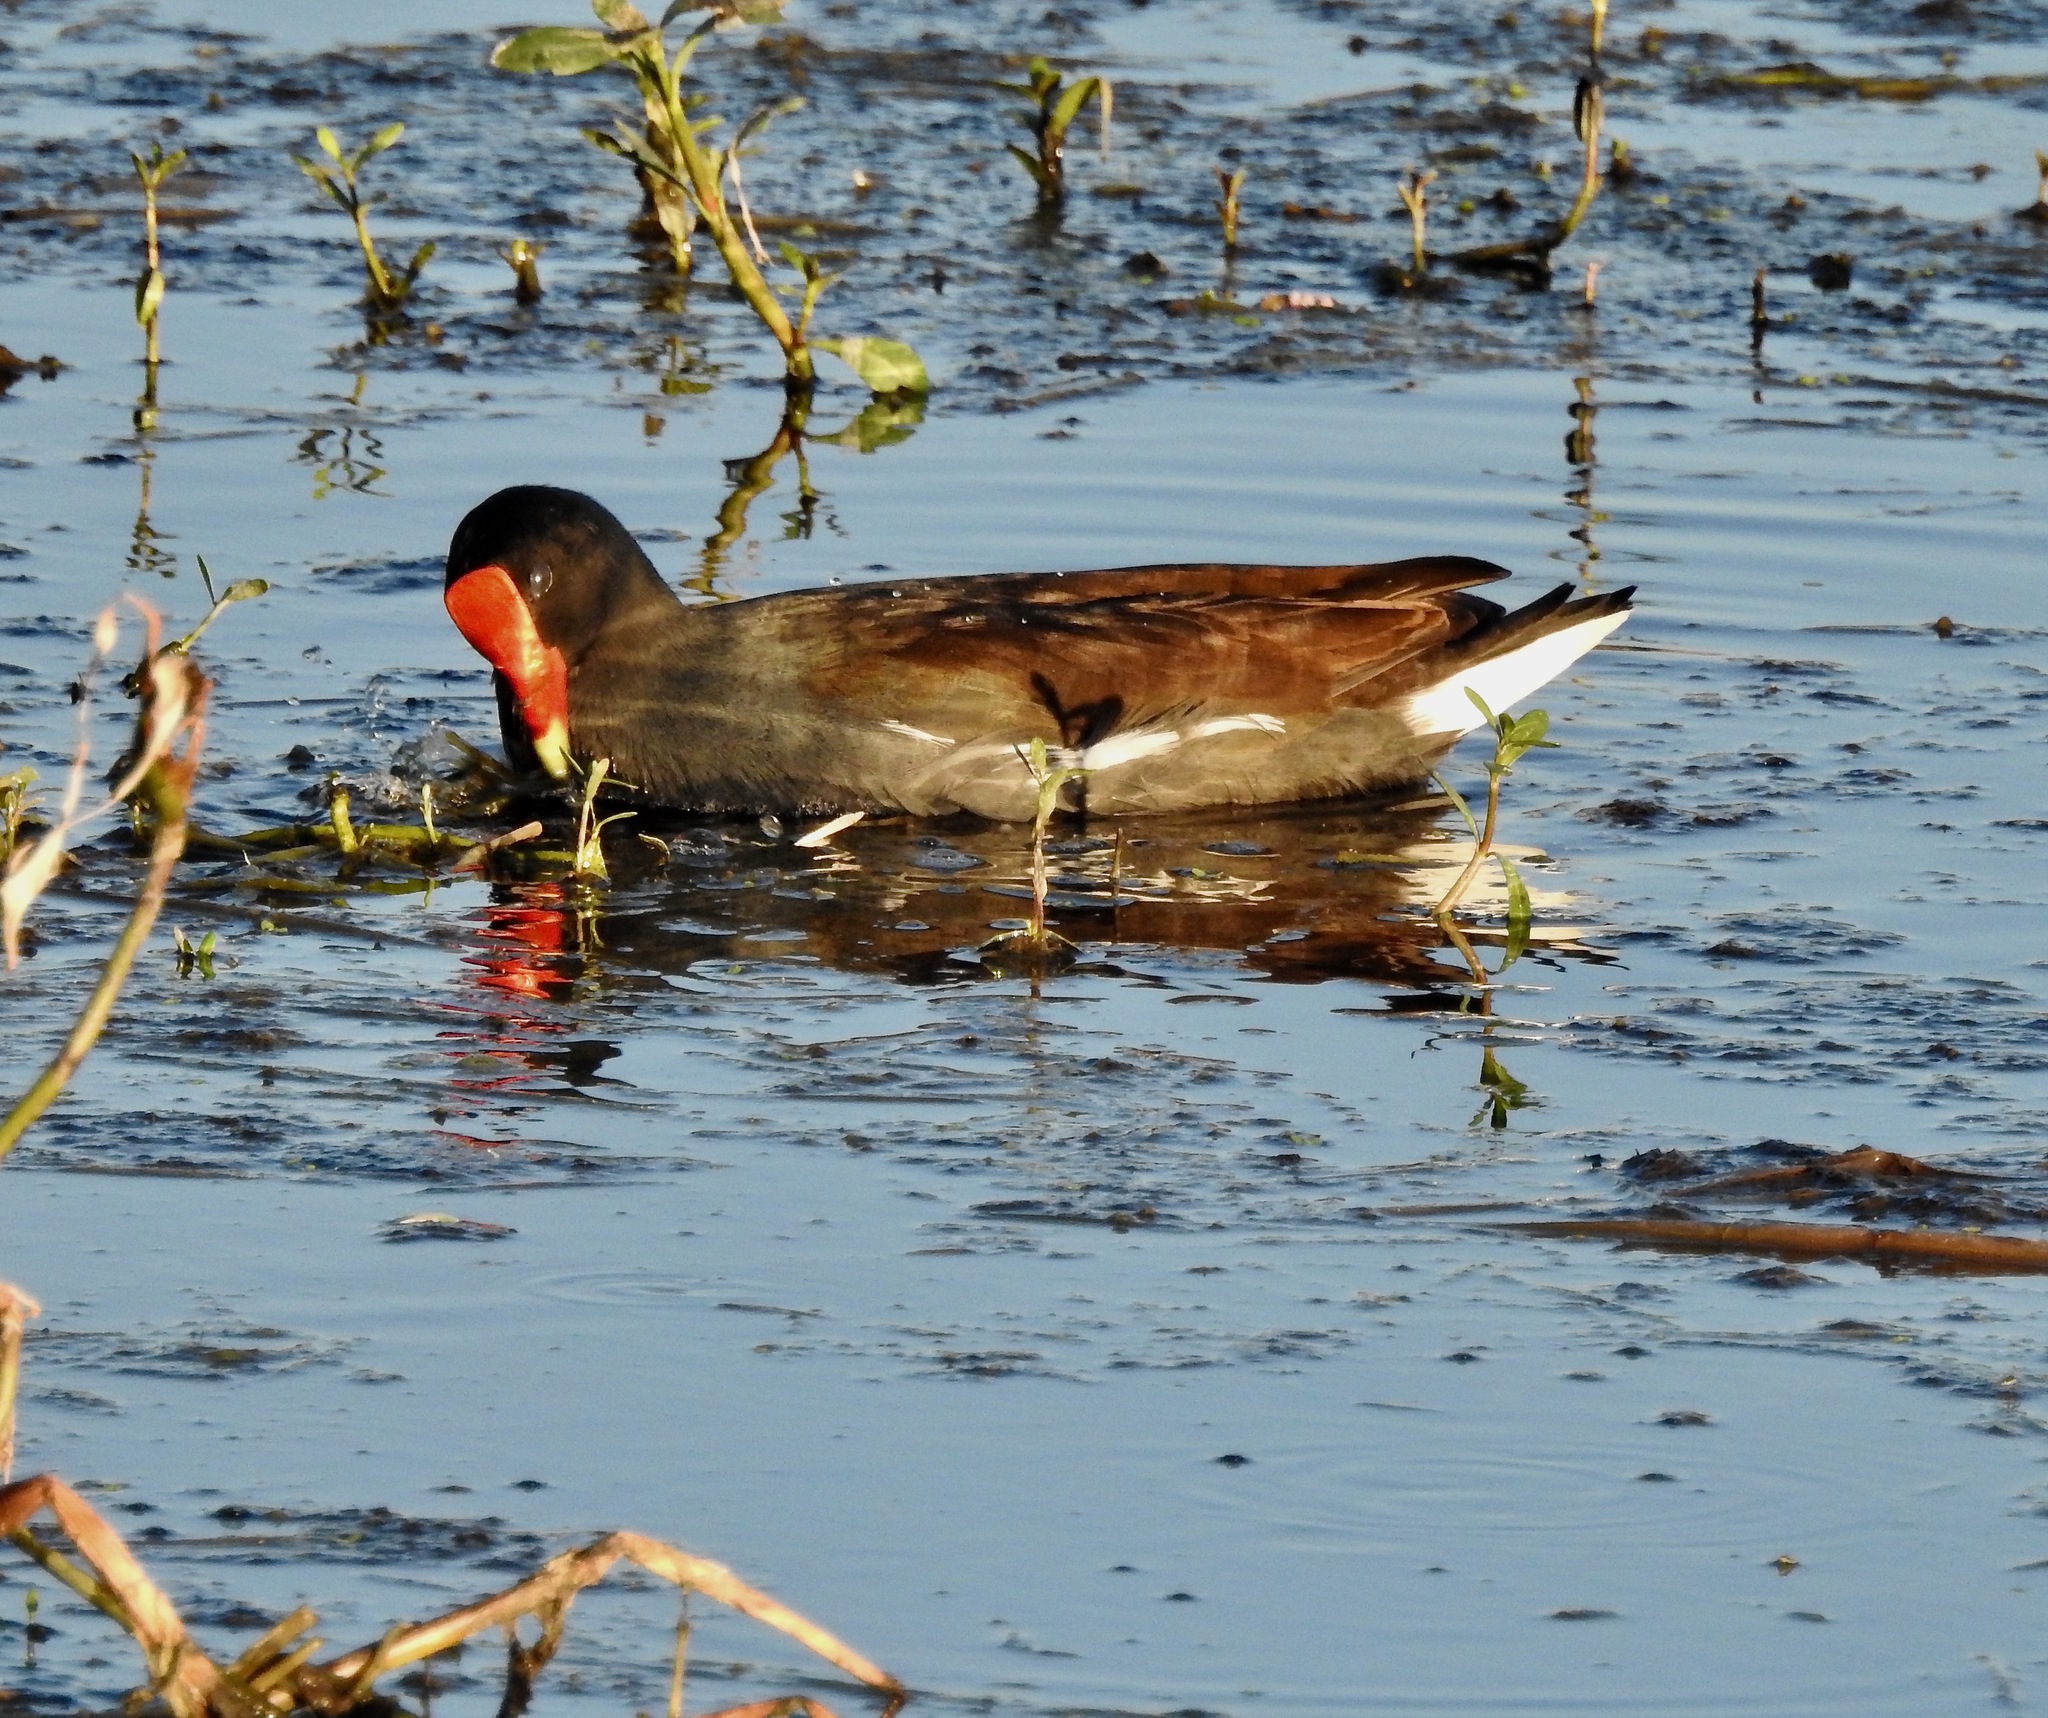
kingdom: Animalia
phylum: Chordata
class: Aves
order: Gruiformes
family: Rallidae
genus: Gallinula
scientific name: Gallinula chloropus
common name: Common moorhen
